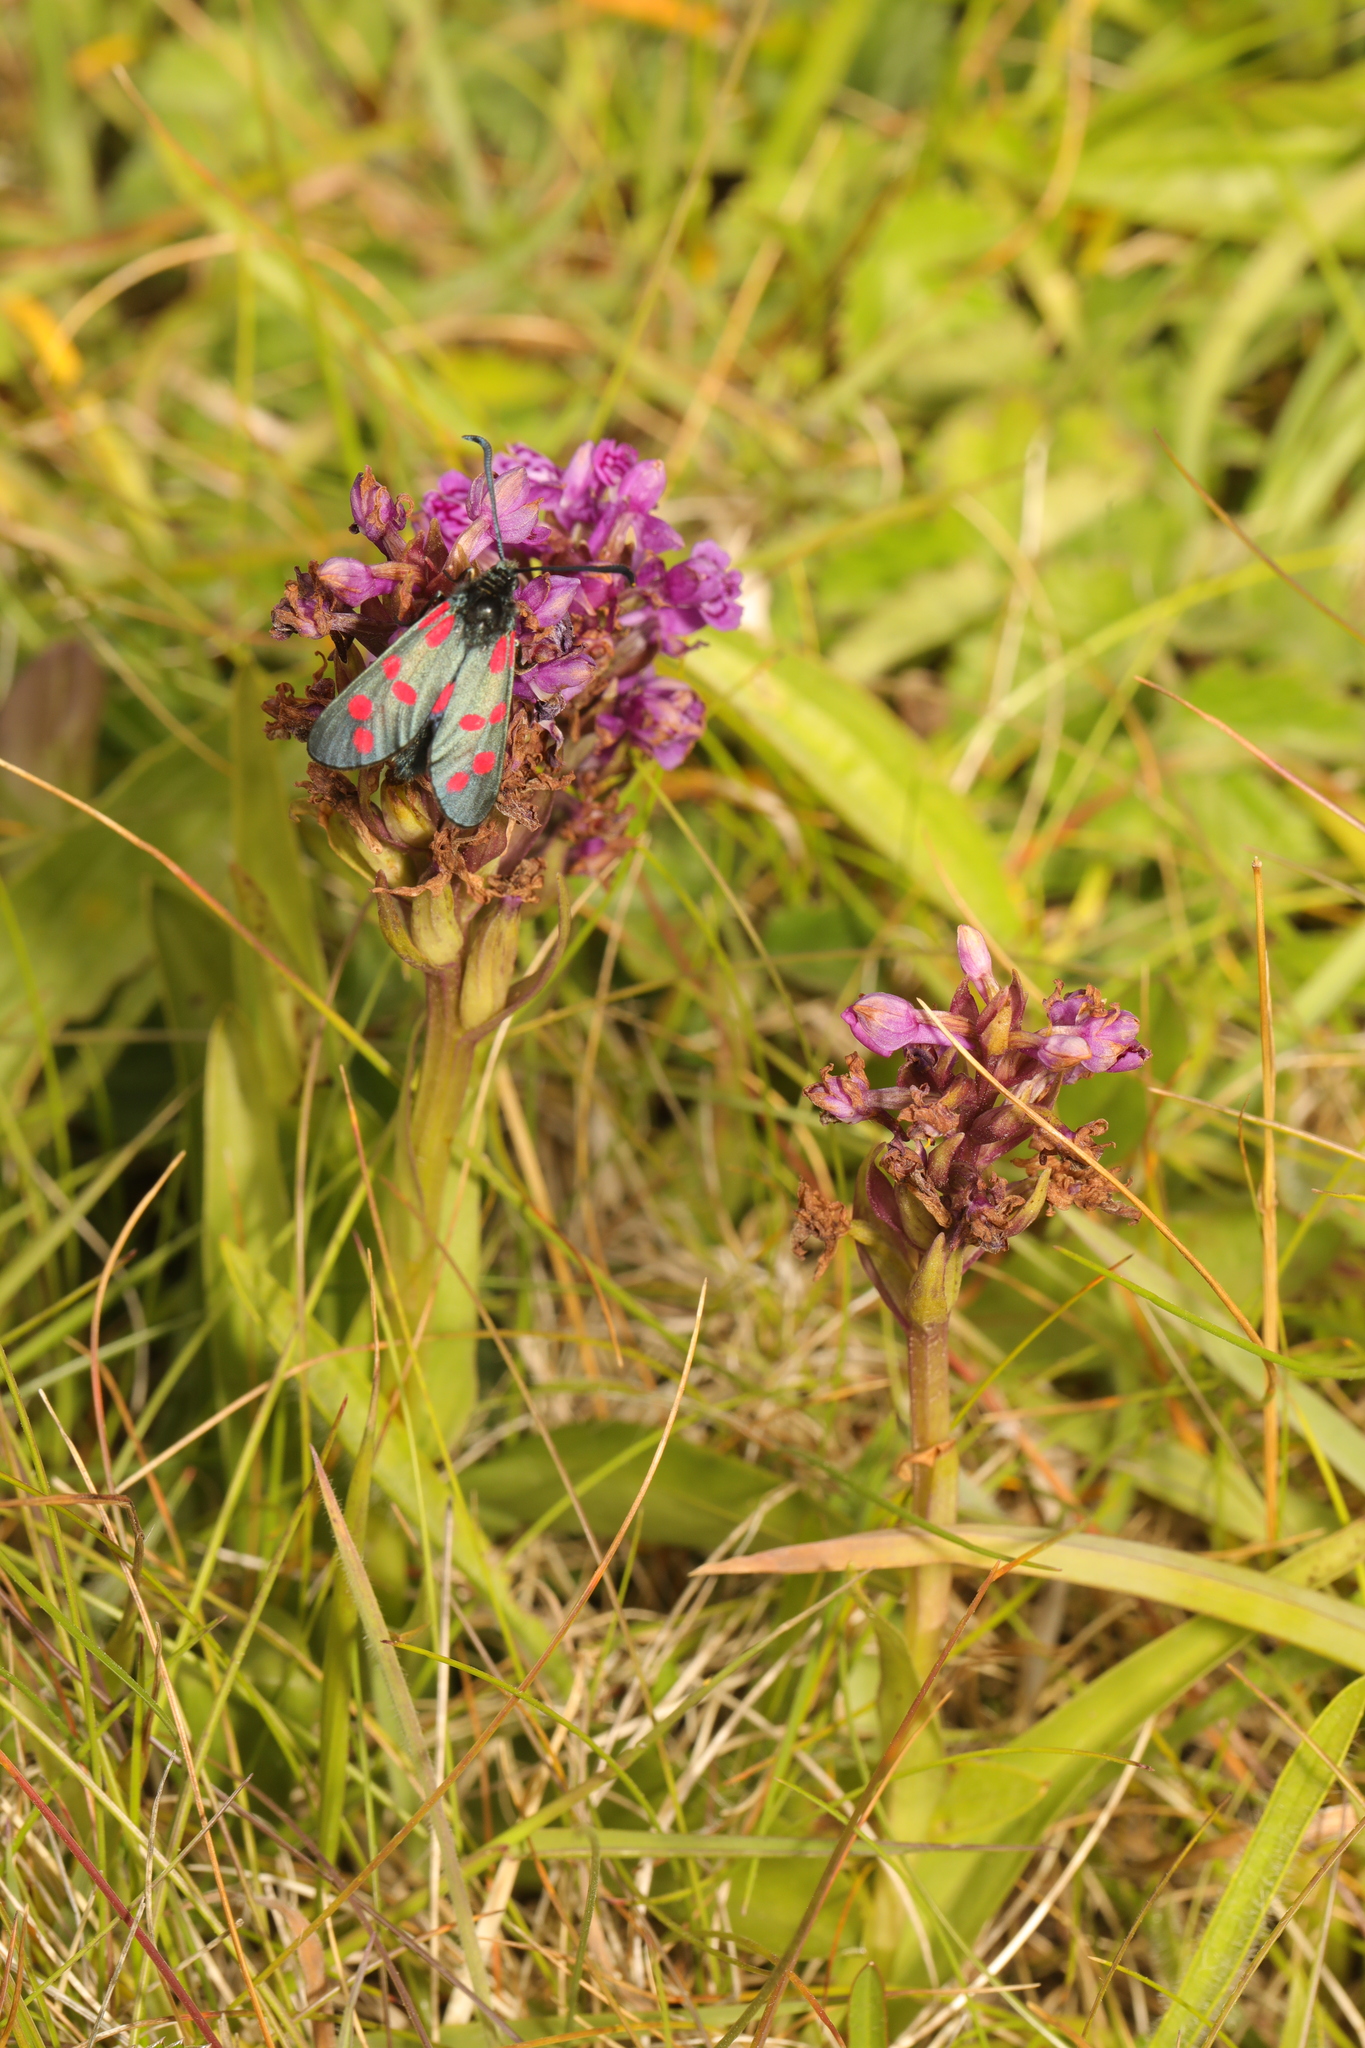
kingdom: Animalia
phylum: Arthropoda
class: Insecta
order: Lepidoptera
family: Zygaenidae
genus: Zygaena
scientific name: Zygaena filipendulae
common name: Six-spot burnet
